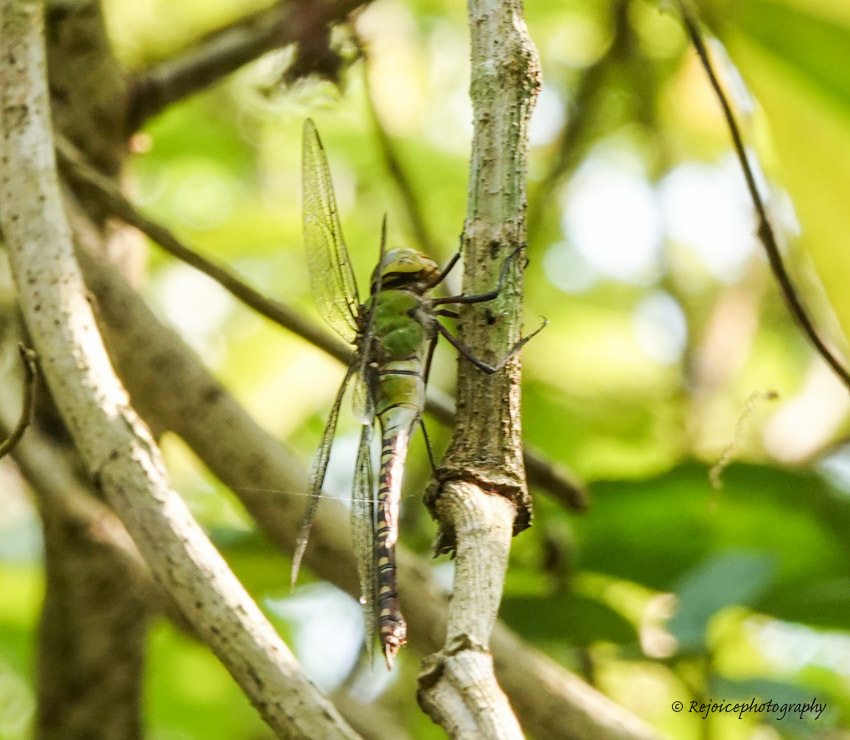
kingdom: Animalia
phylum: Arthropoda
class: Insecta
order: Odonata
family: Aeshnidae
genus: Anax
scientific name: Anax guttatus
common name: Emperor
